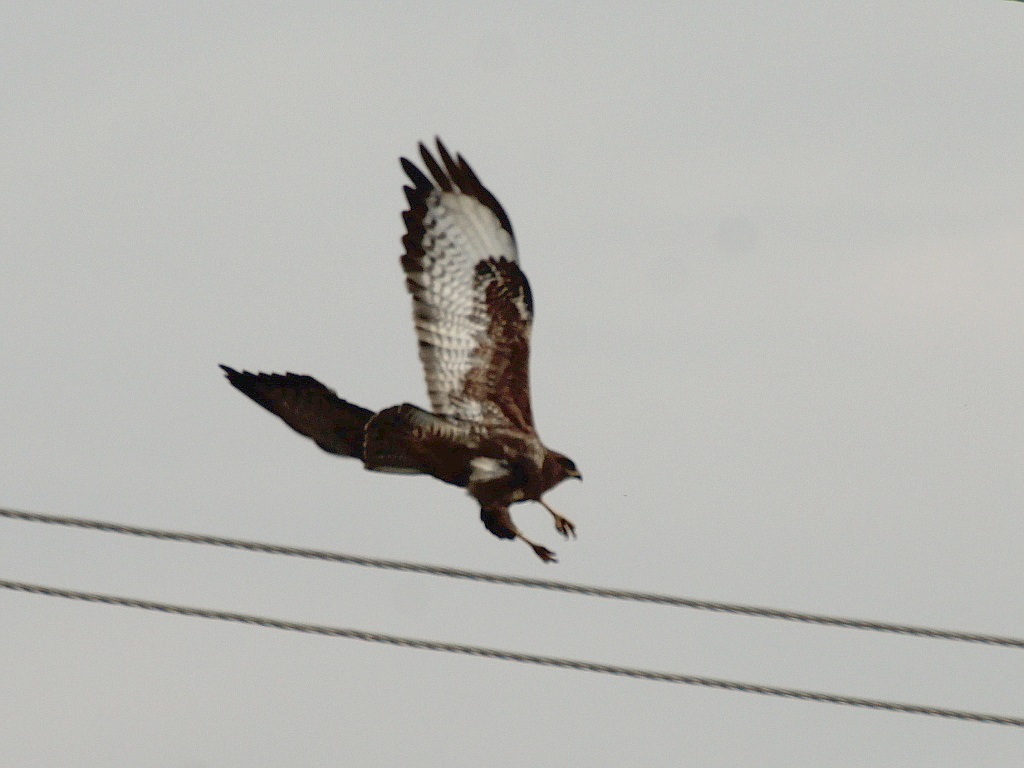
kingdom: Animalia
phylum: Chordata
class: Aves
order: Accipitriformes
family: Accipitridae
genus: Buteo
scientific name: Buteo buteo
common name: Common buzzard
